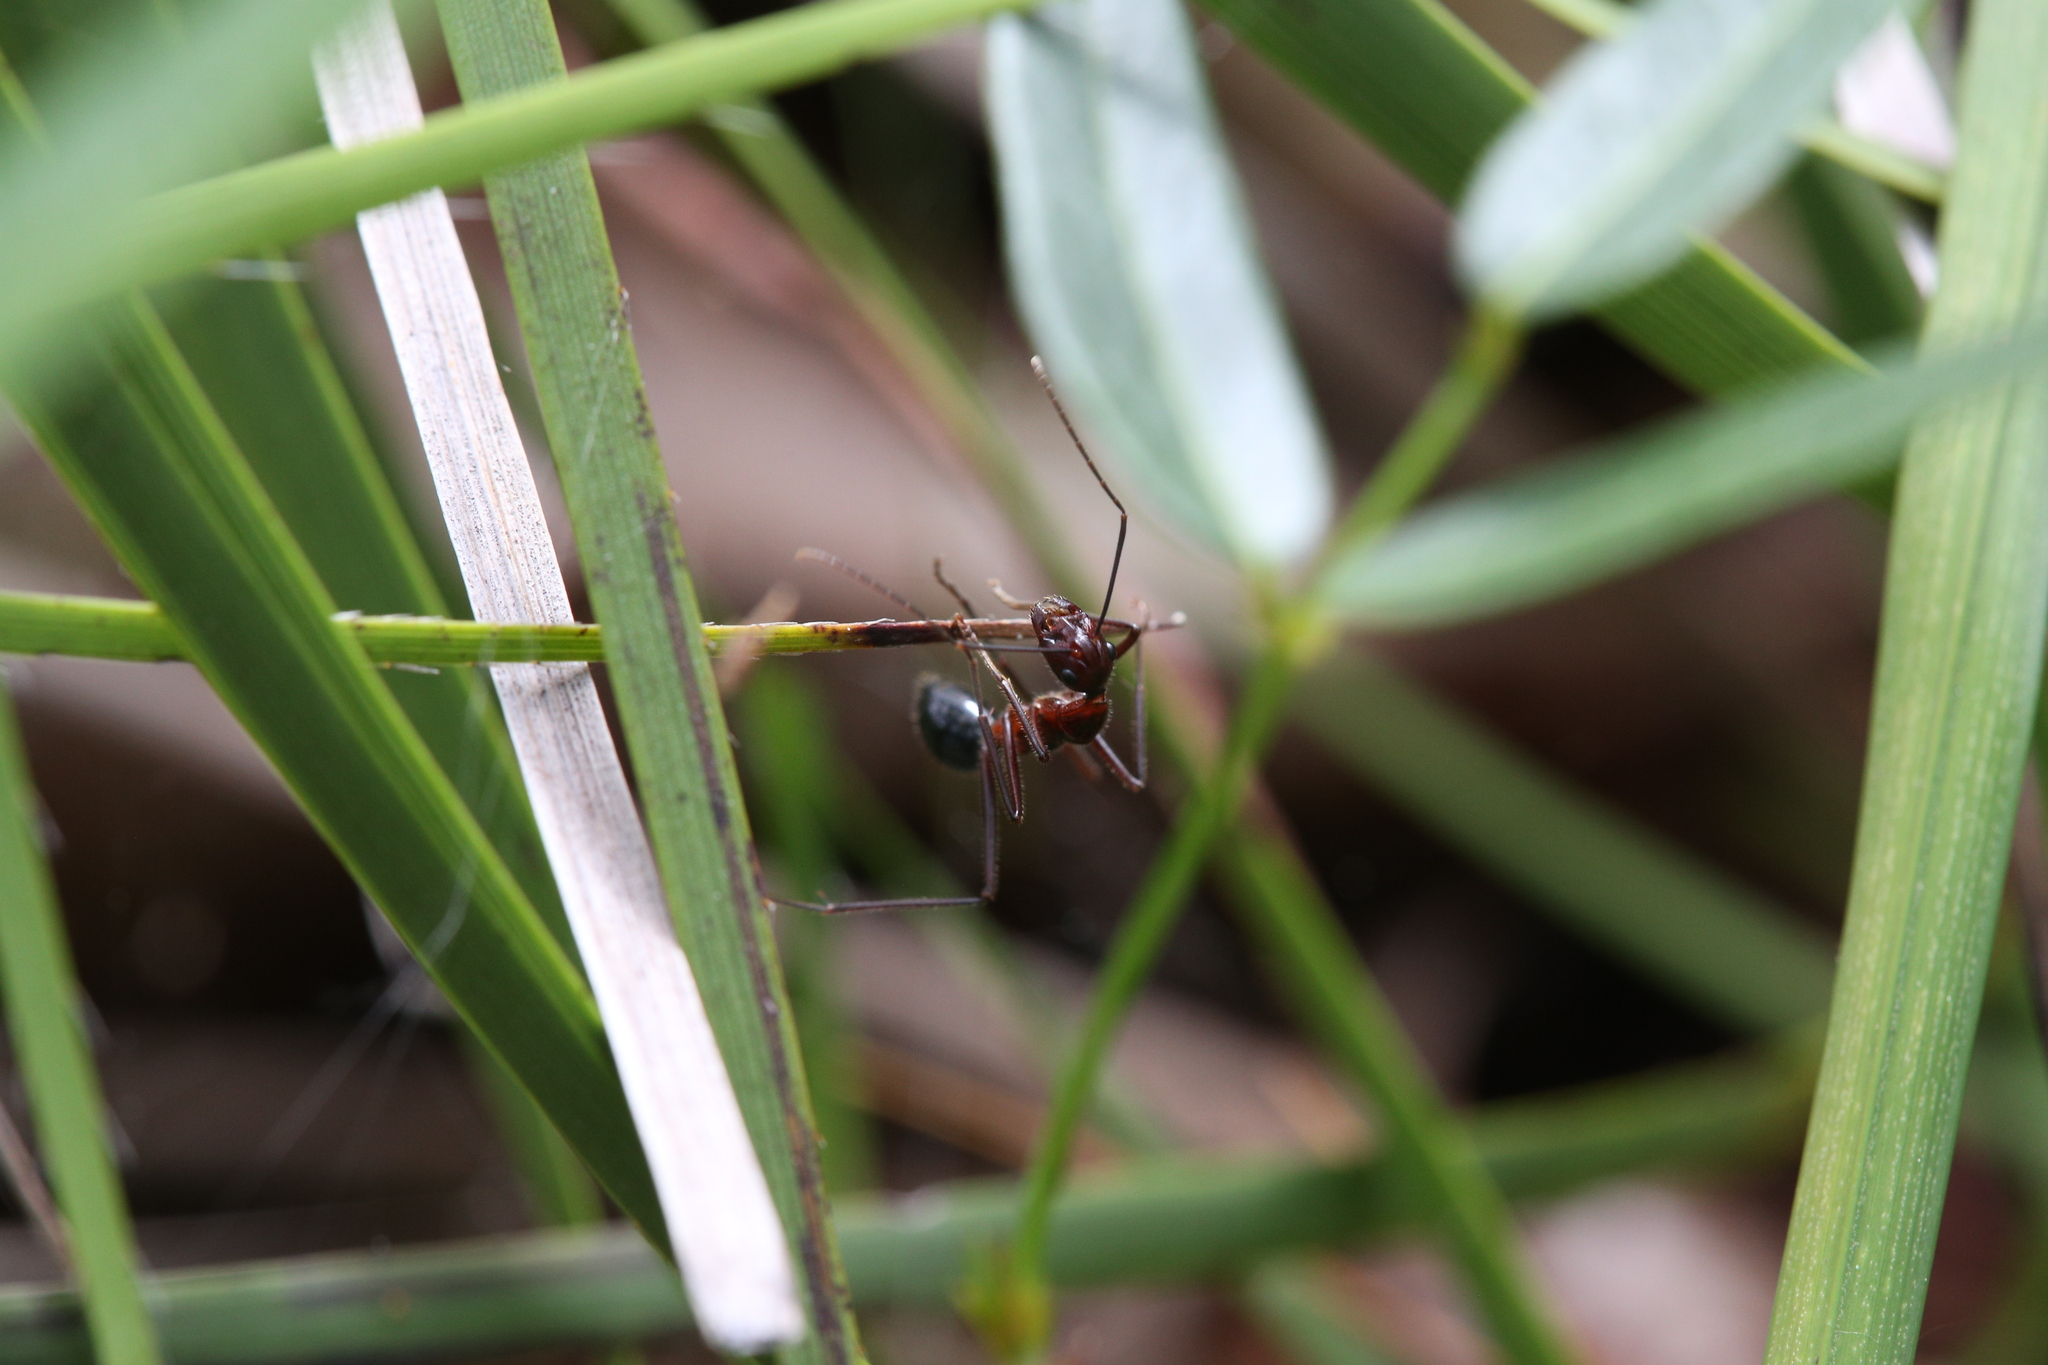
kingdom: Animalia
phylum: Arthropoda
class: Insecta
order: Hymenoptera
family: Formicidae
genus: Camponotus
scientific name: Camponotus johnclarki
